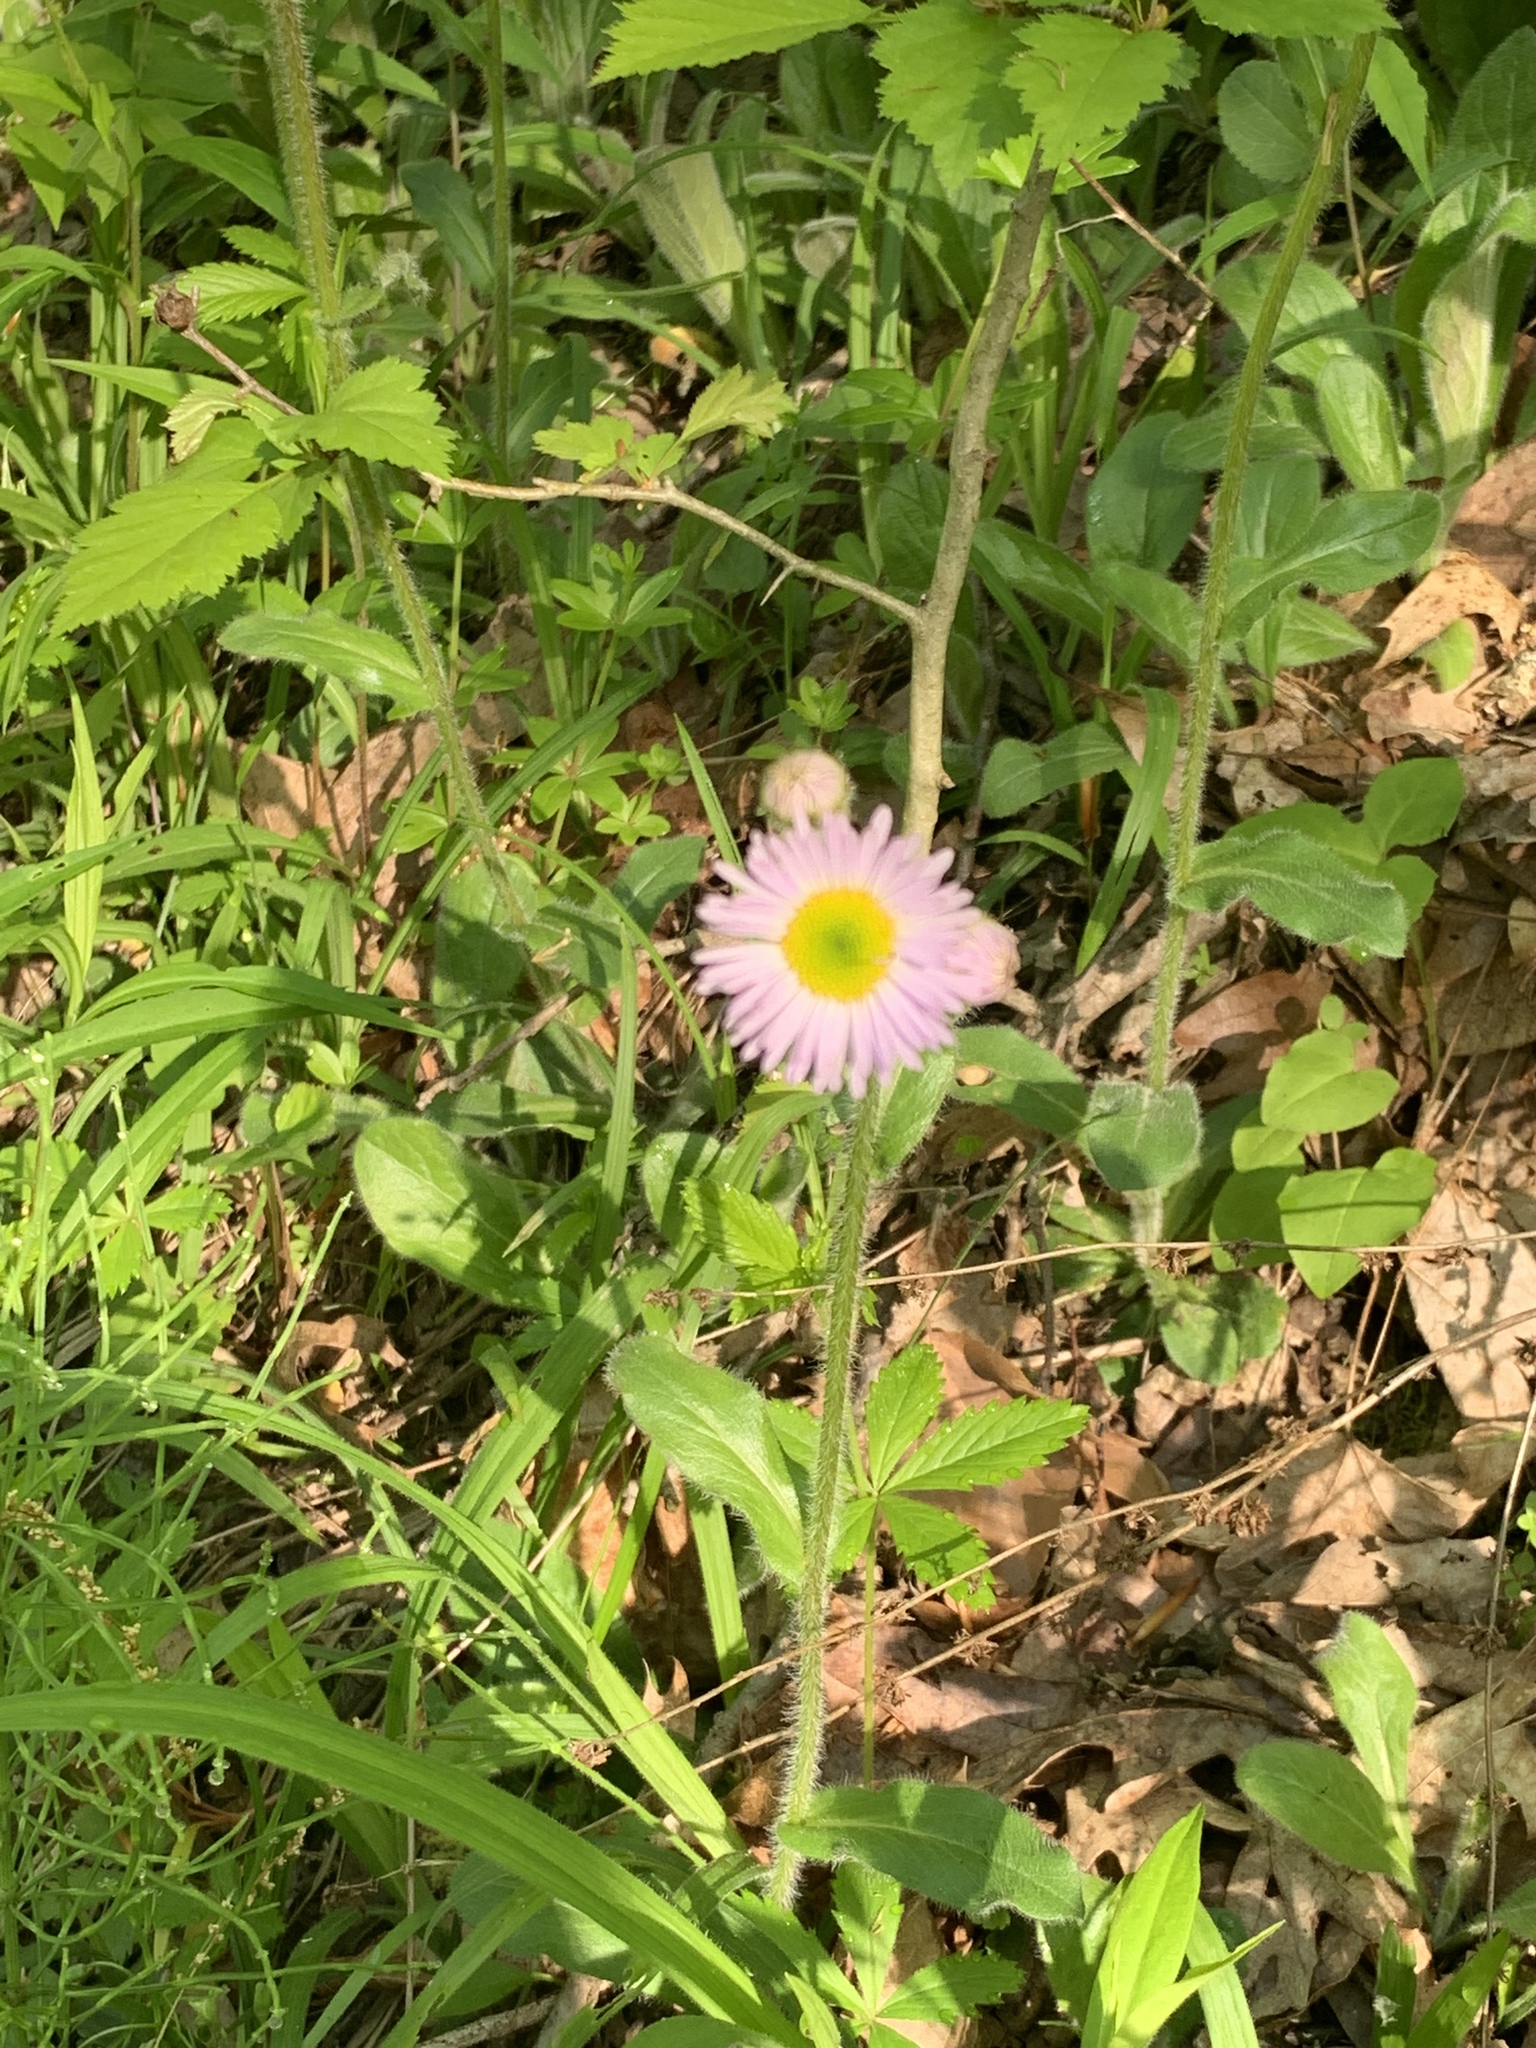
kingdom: Plantae
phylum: Tracheophyta
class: Magnoliopsida
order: Asterales
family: Asteraceae
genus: Erigeron
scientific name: Erigeron pulchellus
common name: Hairy fleabane
